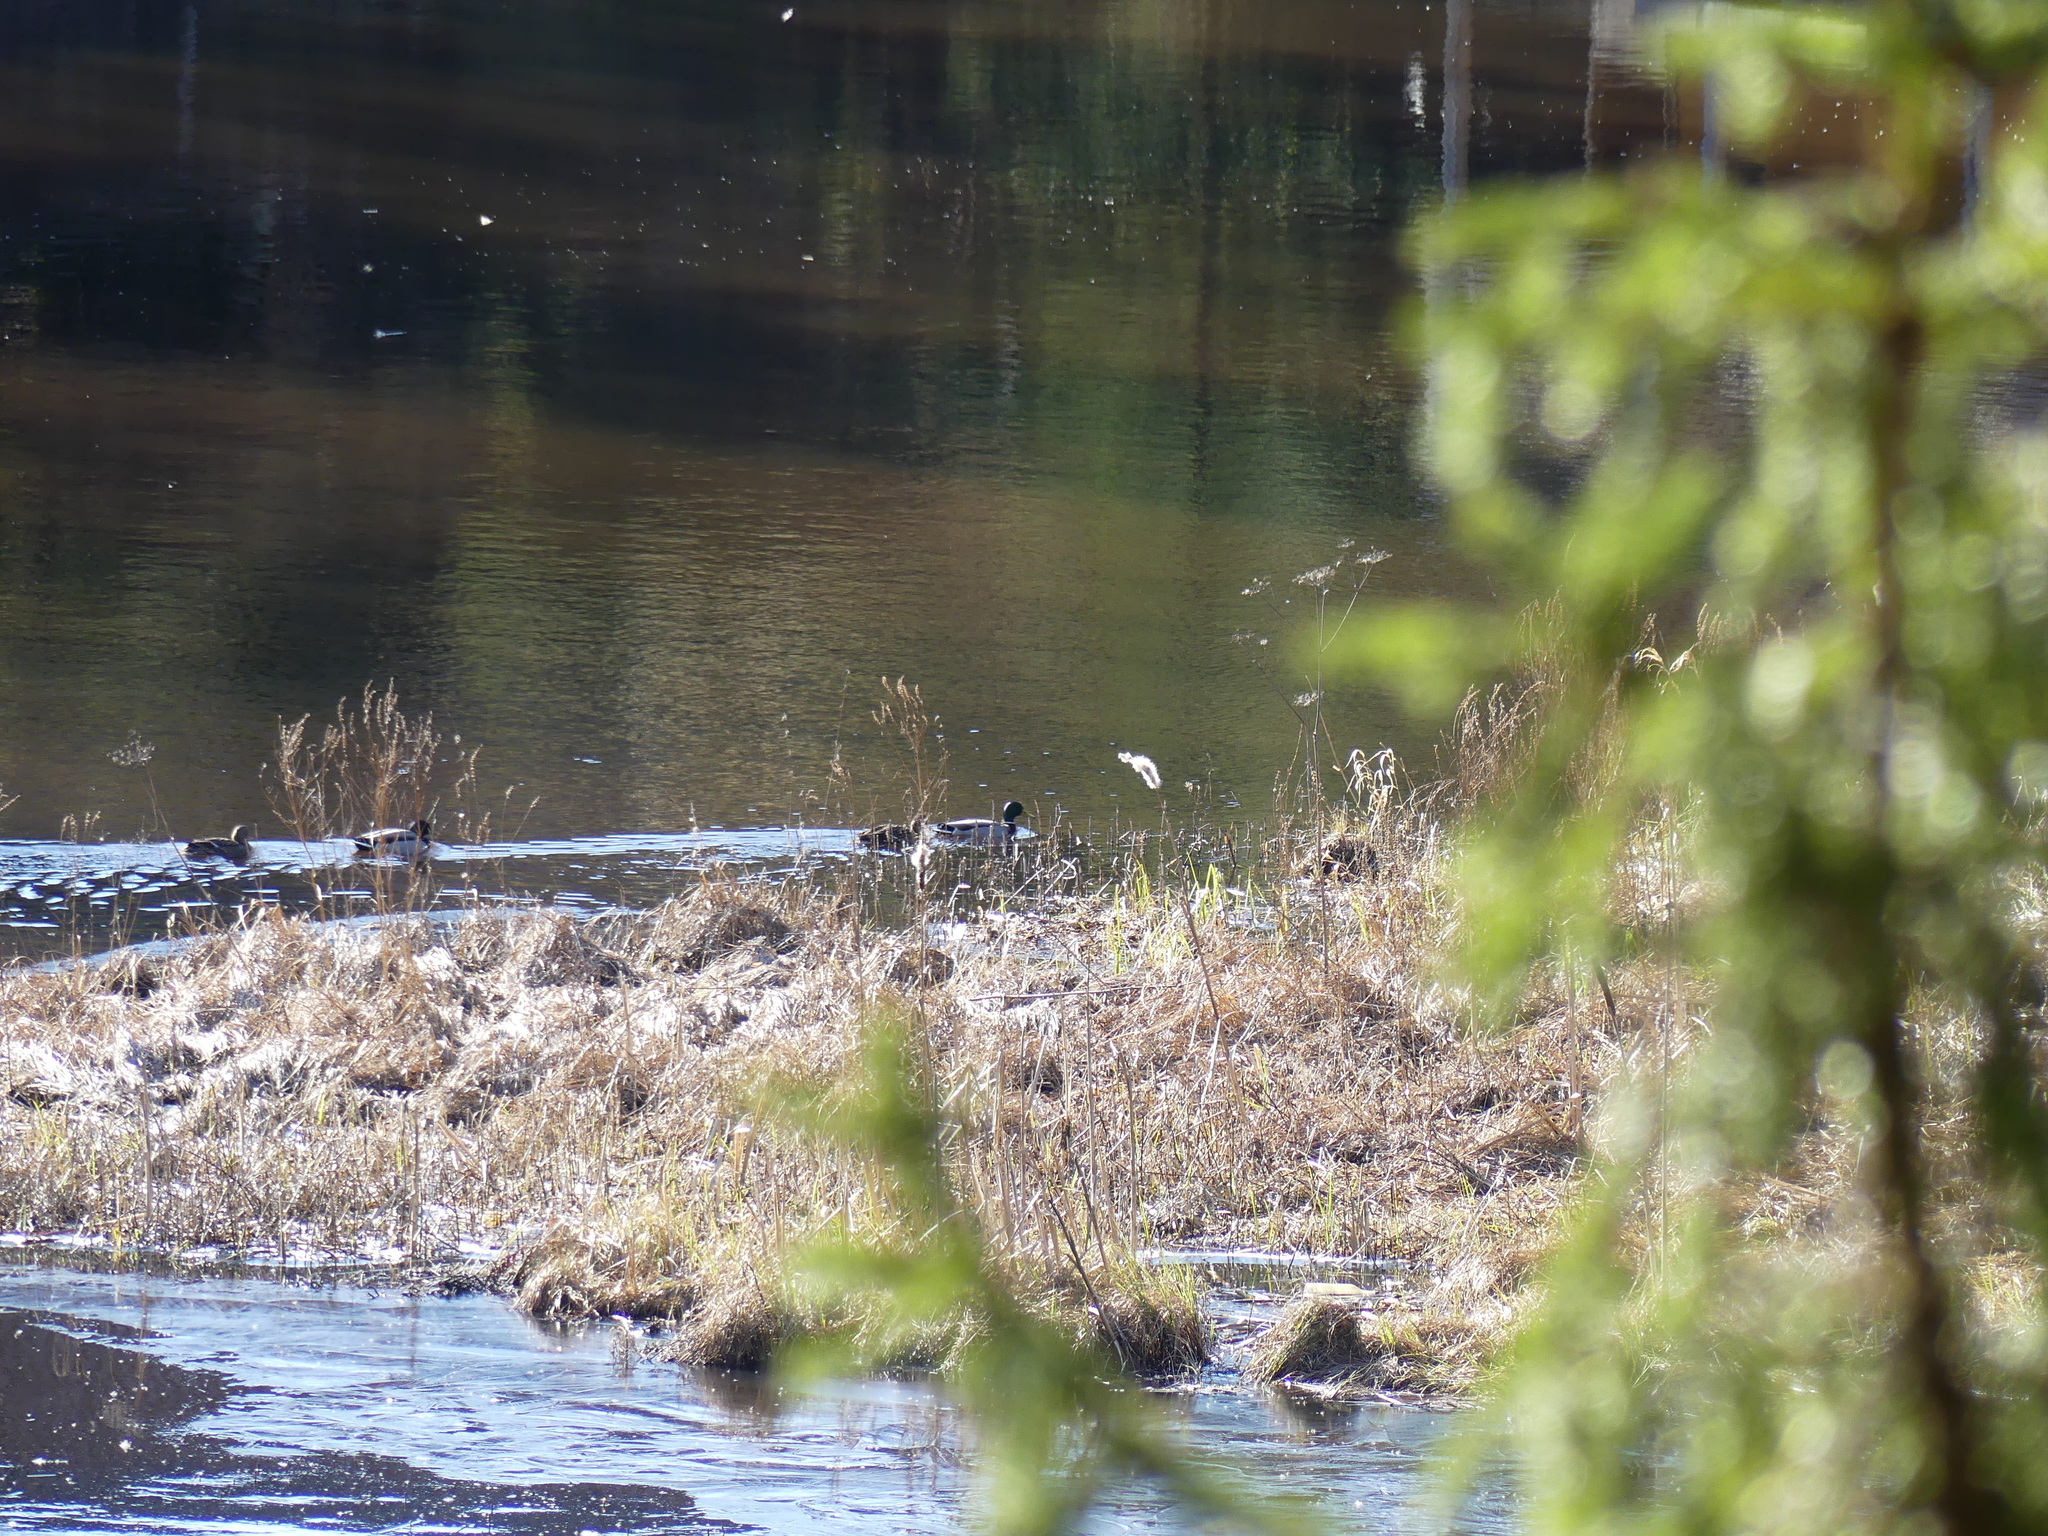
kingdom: Animalia
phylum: Chordata
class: Aves
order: Anseriformes
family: Anatidae
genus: Anas
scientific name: Anas platyrhynchos
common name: Mallard
